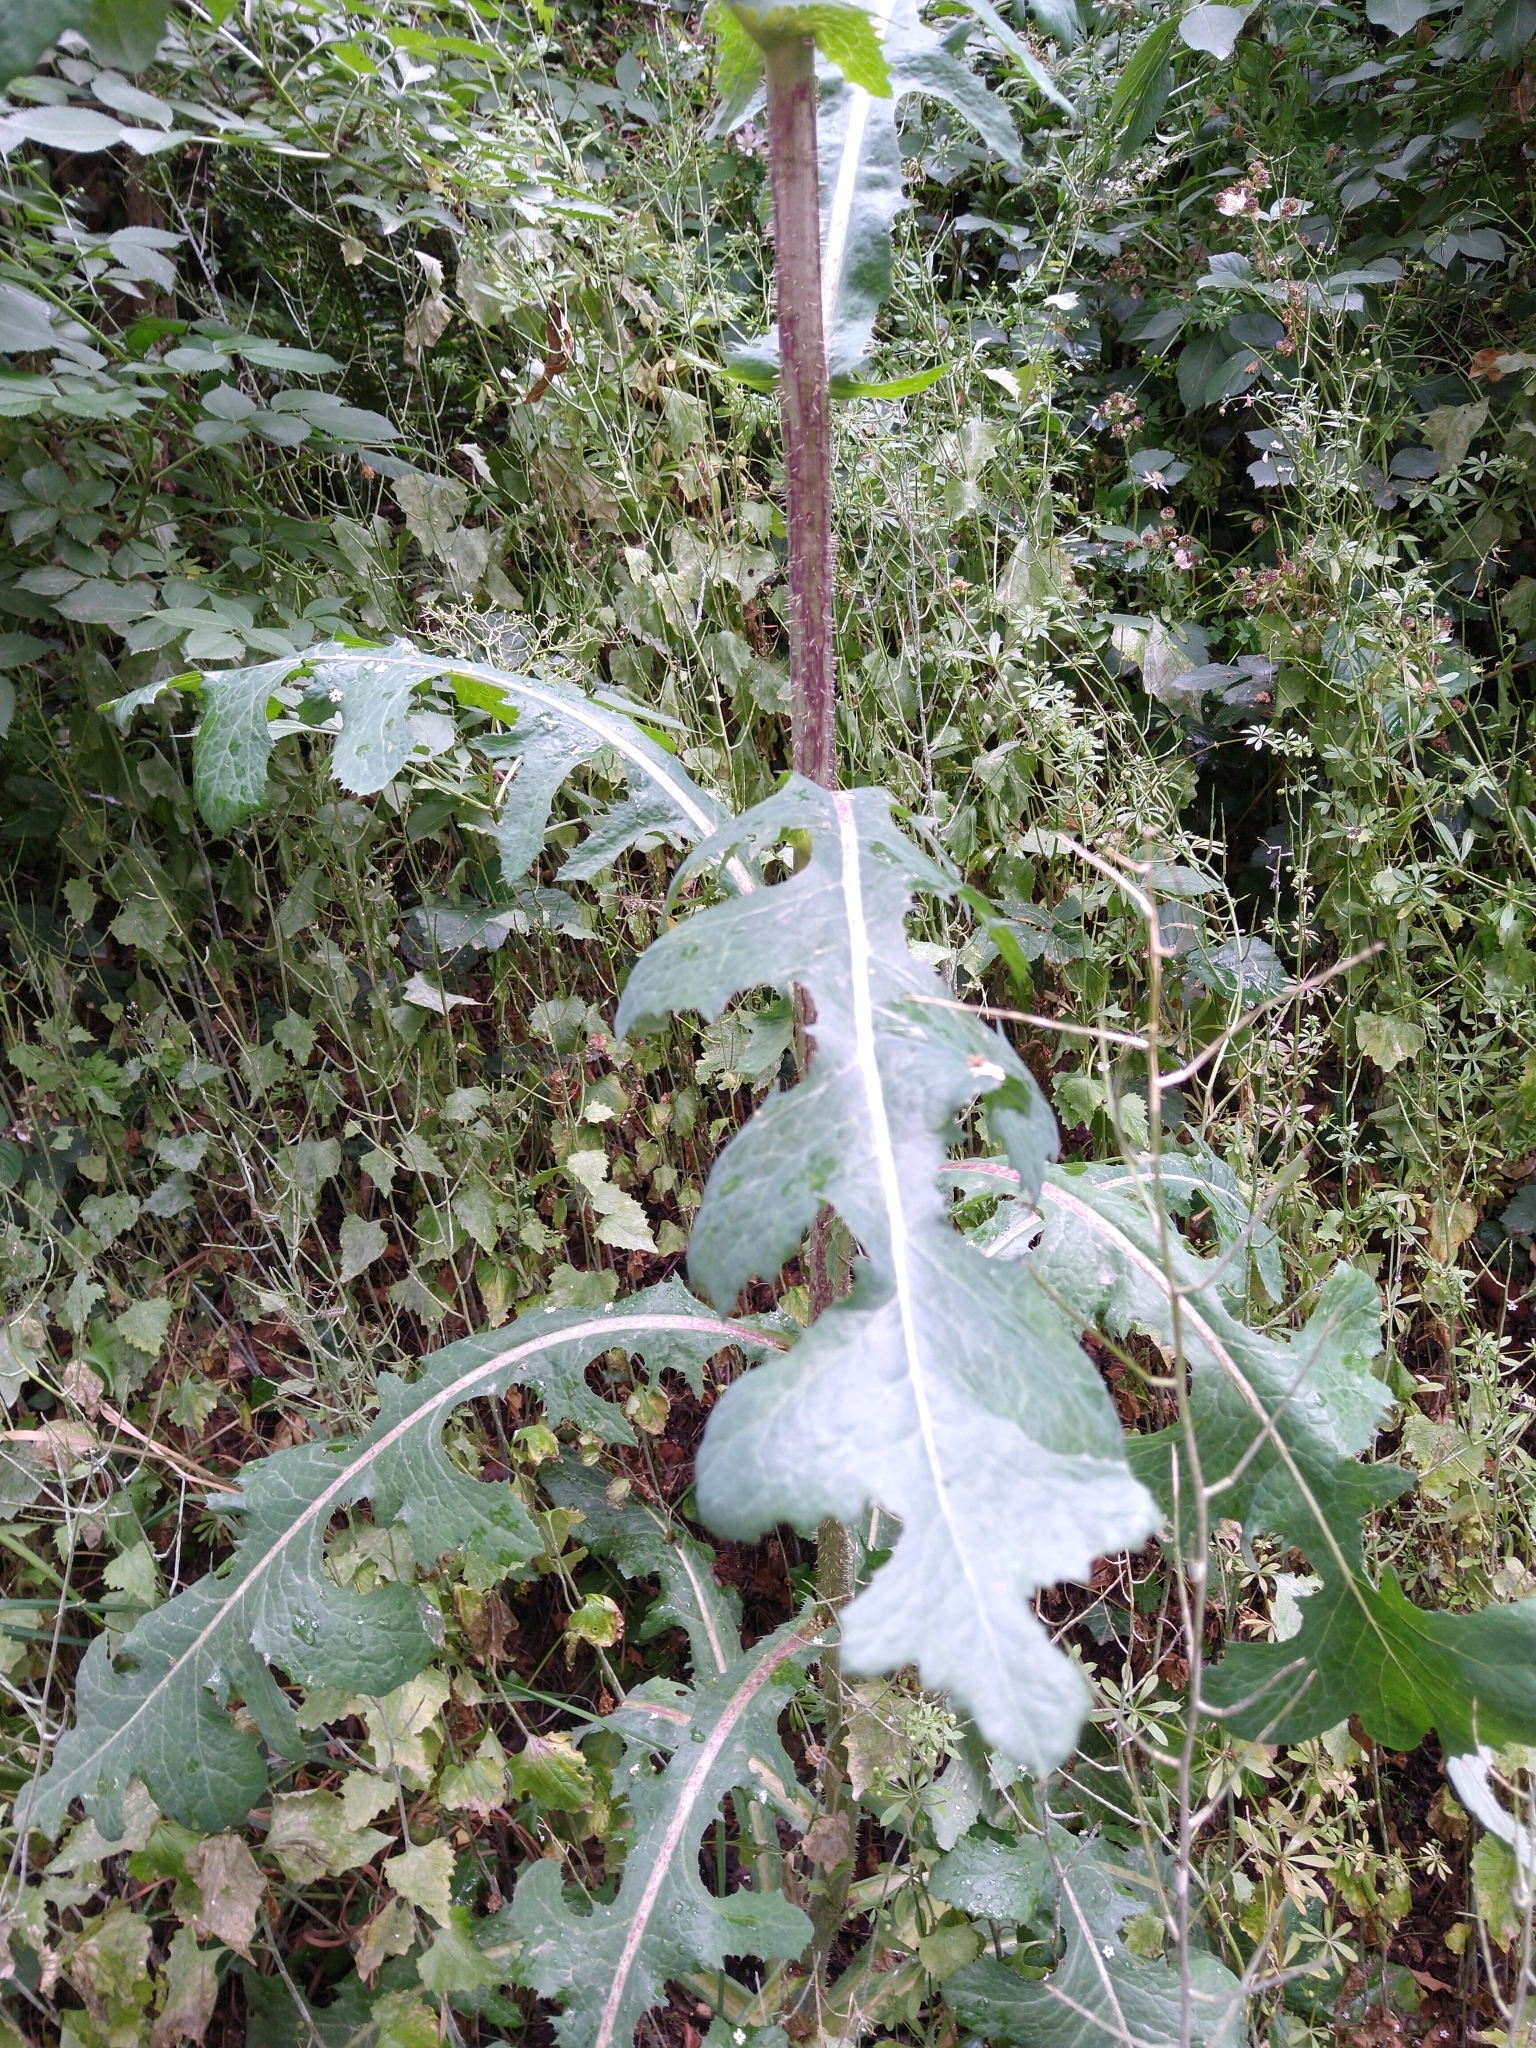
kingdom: Plantae
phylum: Tracheophyta
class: Magnoliopsida
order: Asterales
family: Asteraceae
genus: Lactuca
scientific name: Lactuca serriola
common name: Prickly lettuce
